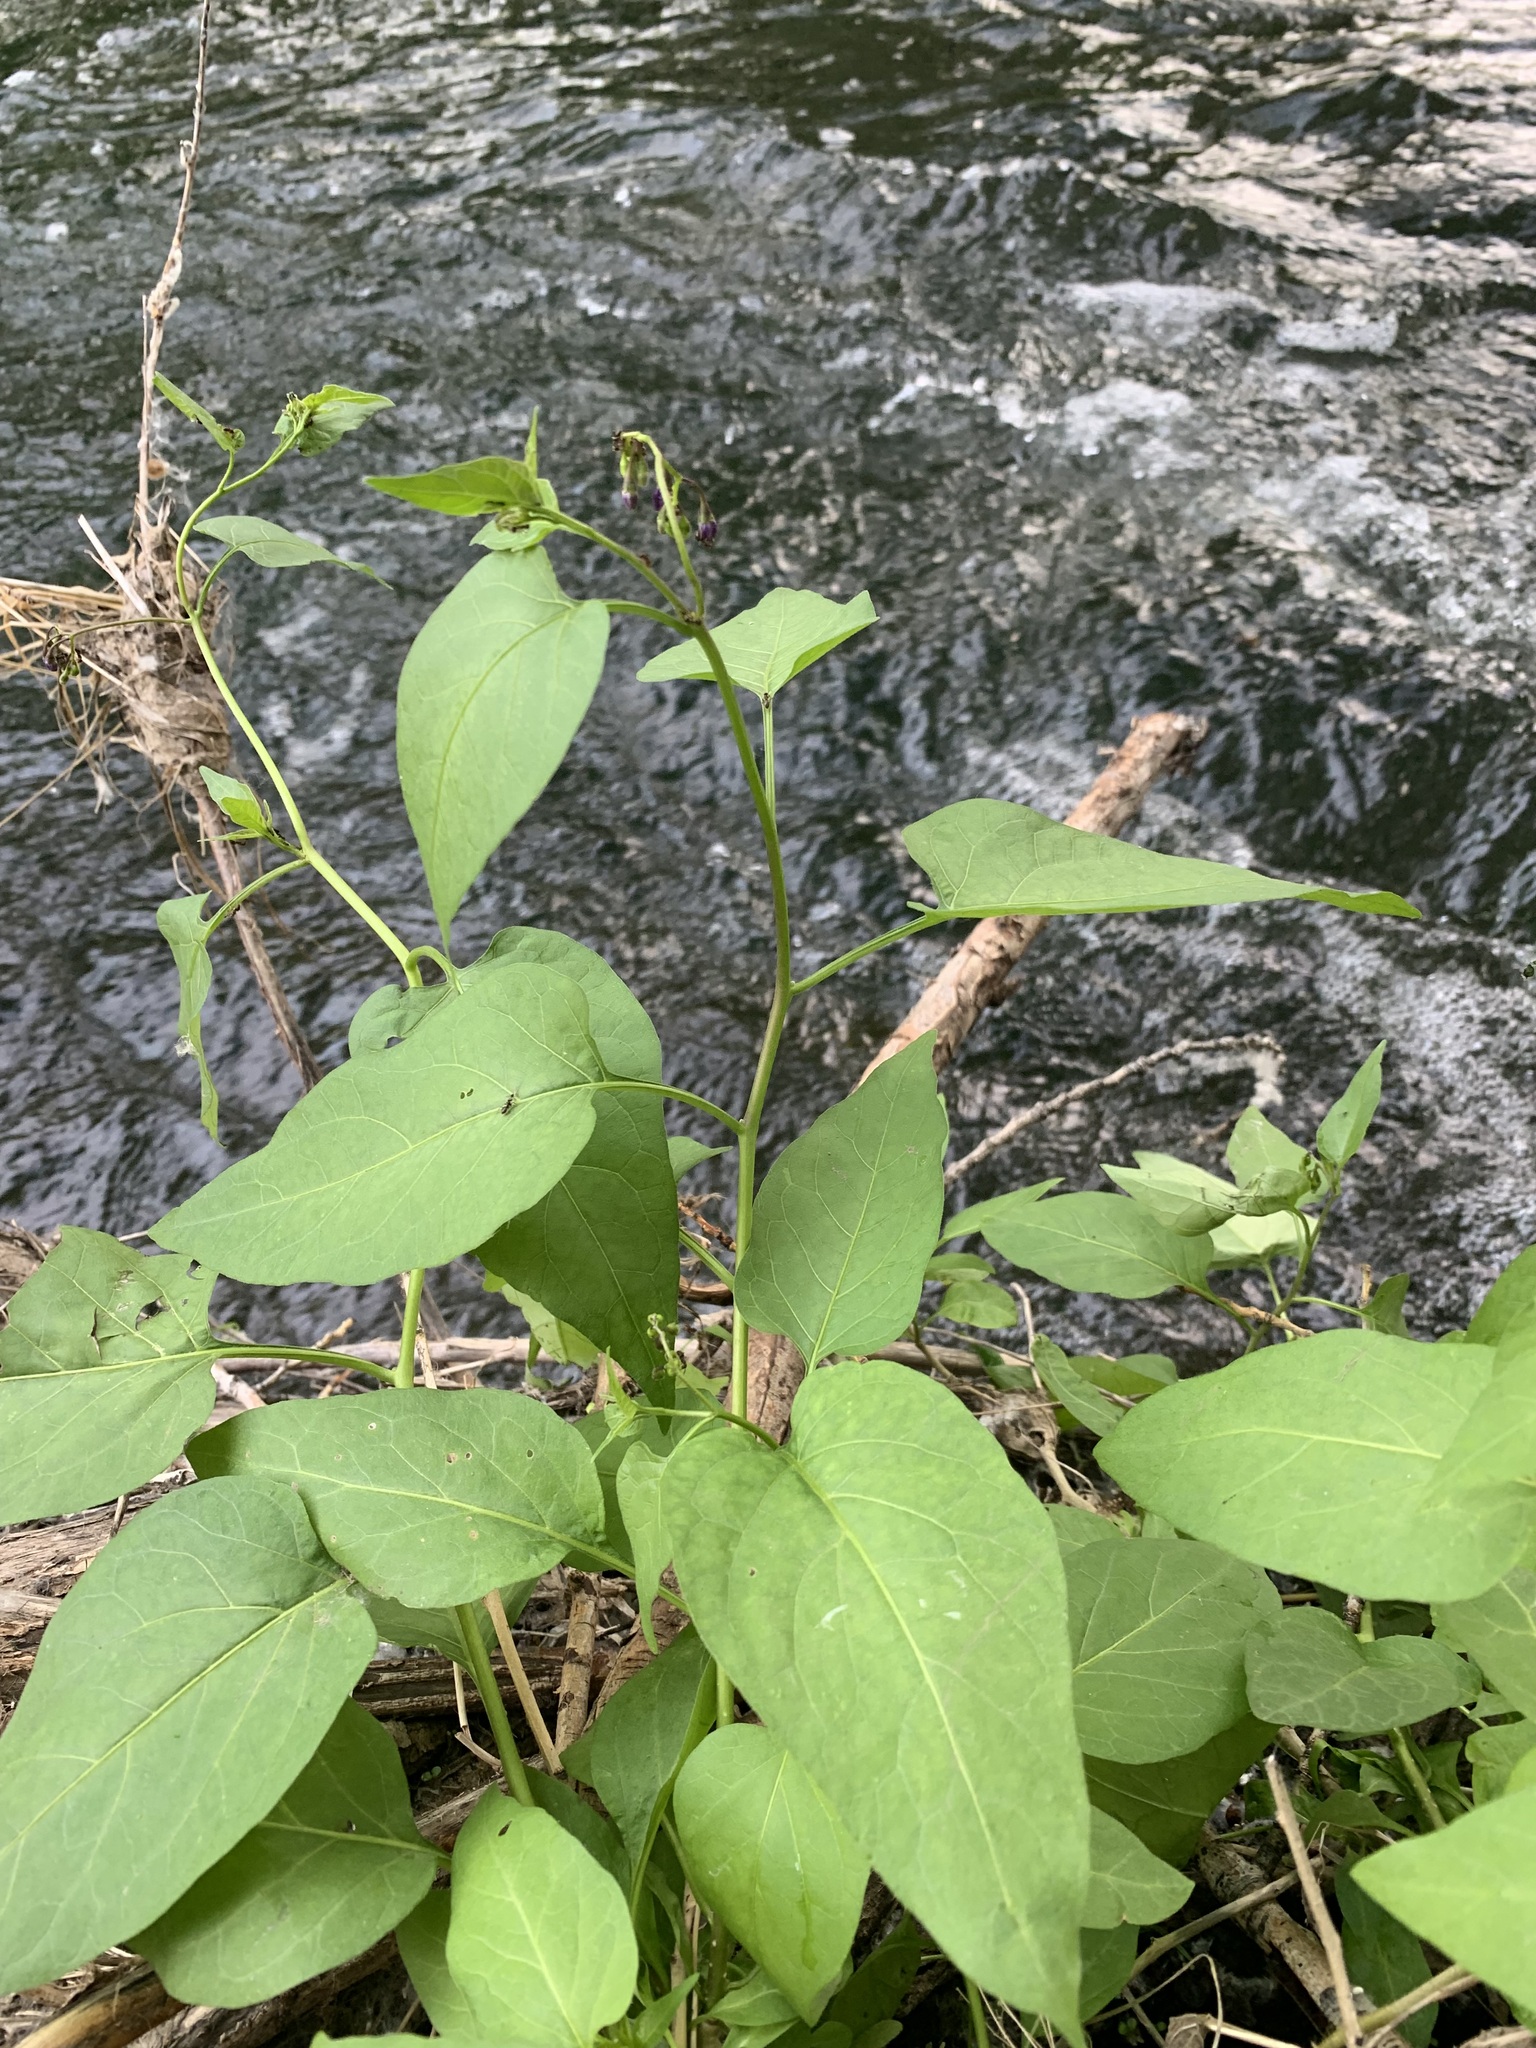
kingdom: Plantae
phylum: Tracheophyta
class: Magnoliopsida
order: Solanales
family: Solanaceae
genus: Solanum
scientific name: Solanum dulcamara
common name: Climbing nightshade
